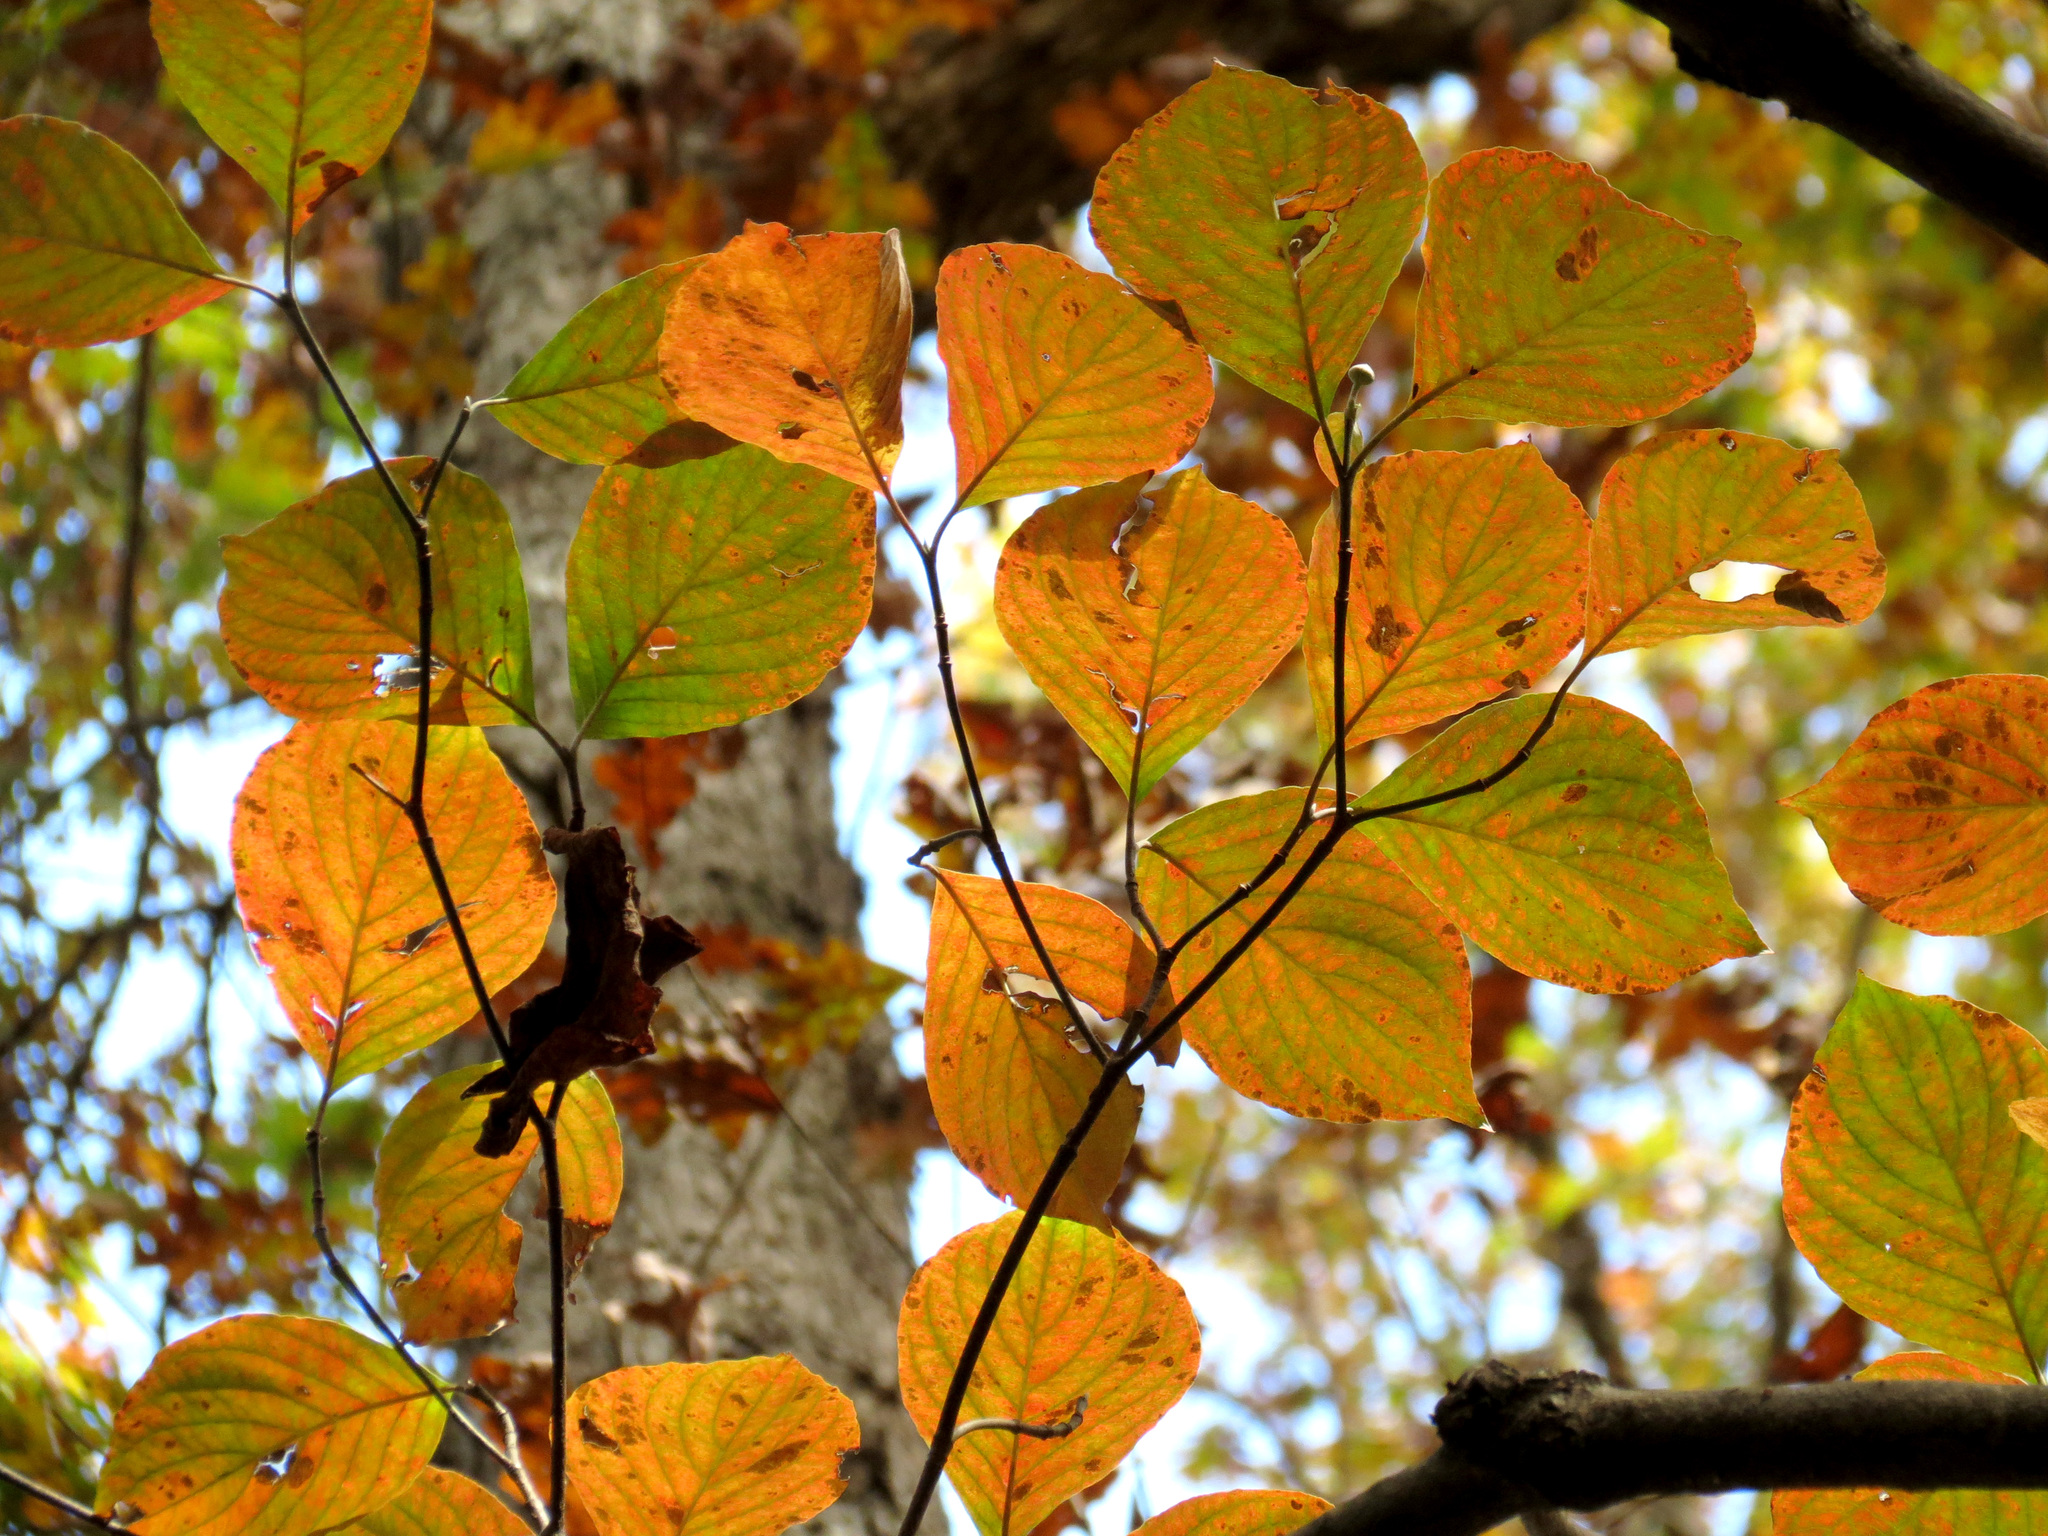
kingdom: Plantae
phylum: Tracheophyta
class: Magnoliopsida
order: Cornales
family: Cornaceae
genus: Cornus
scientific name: Cornus florida
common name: Flowering dogwood
